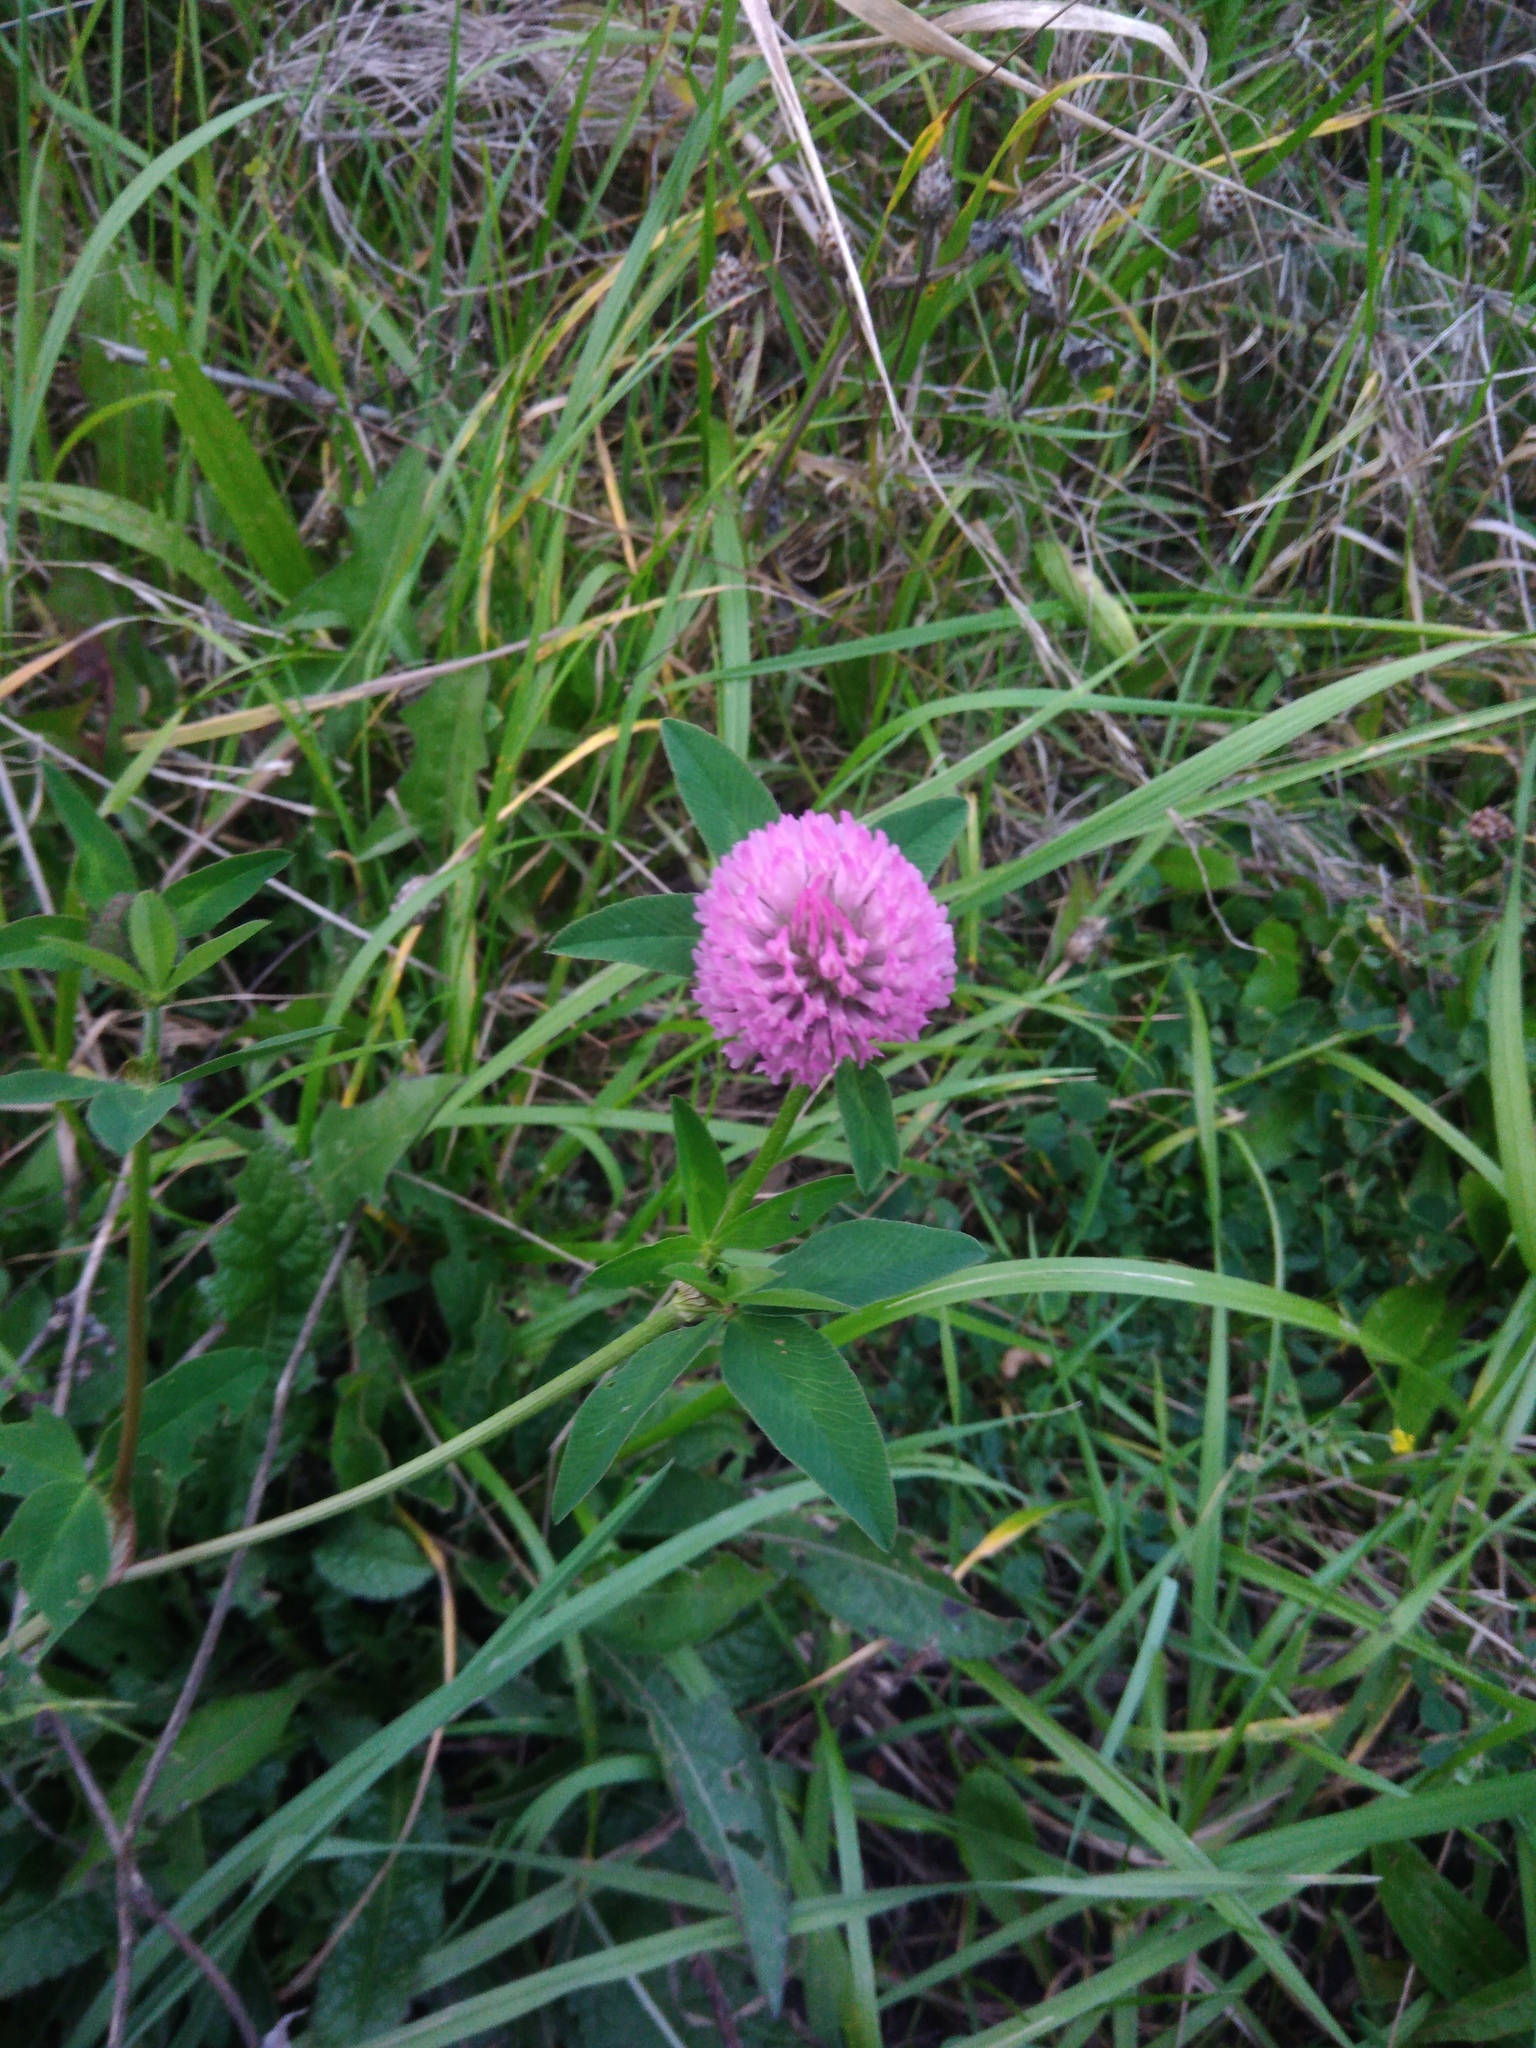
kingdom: Plantae
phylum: Tracheophyta
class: Magnoliopsida
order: Fabales
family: Fabaceae
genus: Trifolium
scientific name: Trifolium pratense
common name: Red clover
